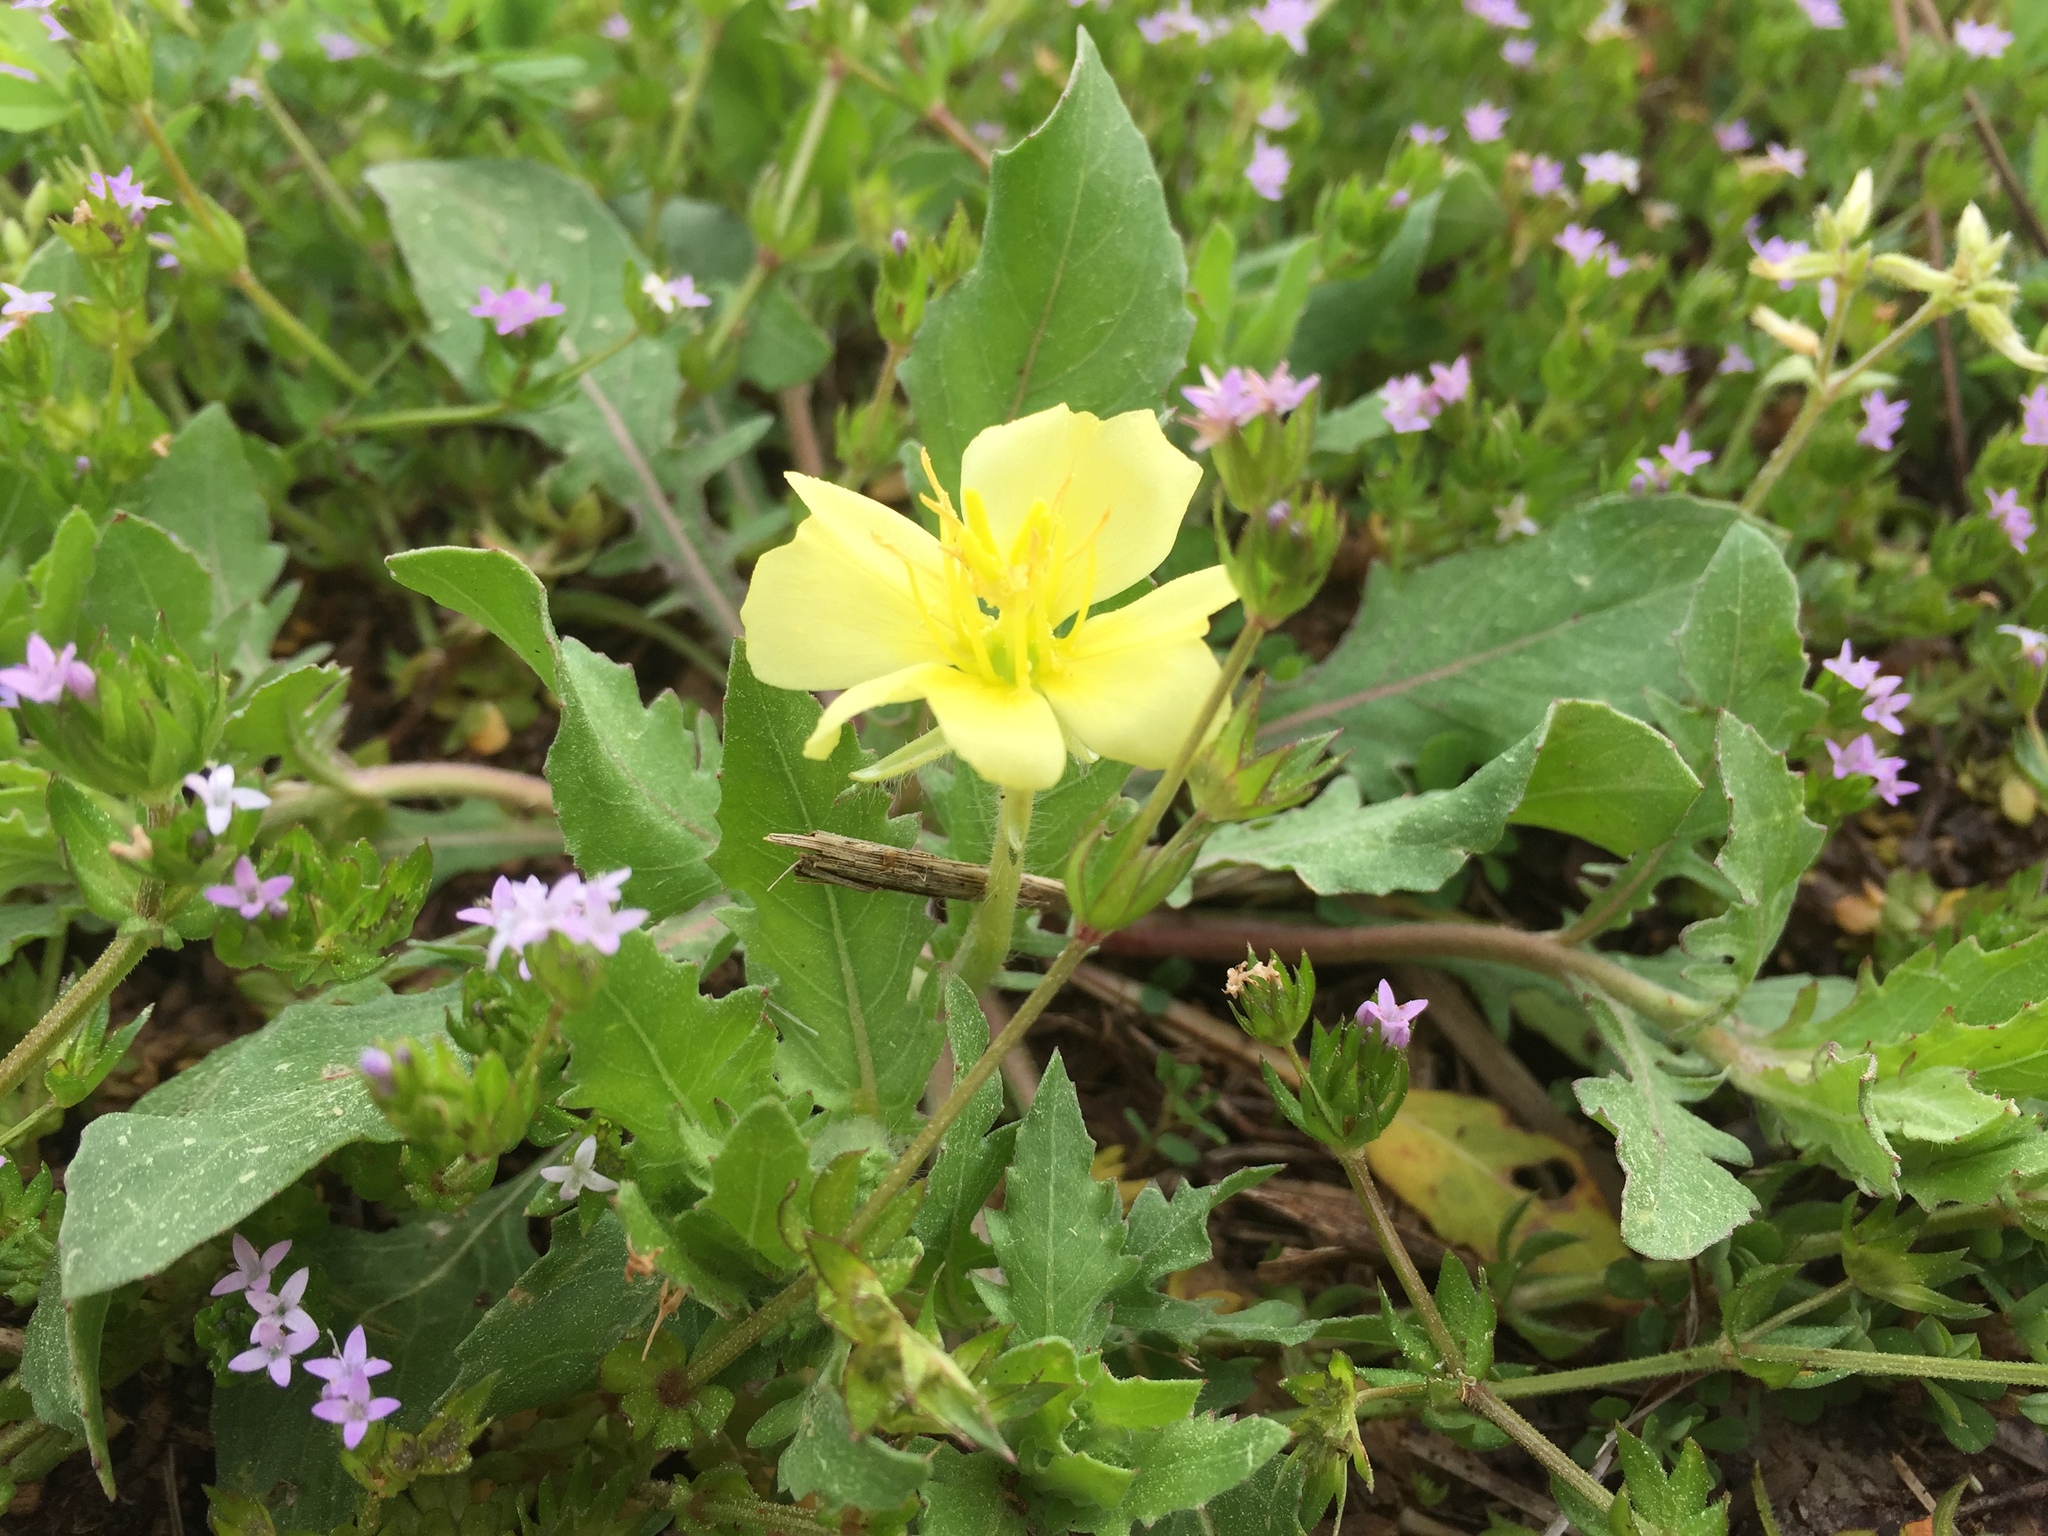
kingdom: Plantae
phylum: Tracheophyta
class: Magnoliopsida
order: Myrtales
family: Onagraceae
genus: Oenothera
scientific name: Oenothera laciniata
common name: Cut-leaved evening-primrose
